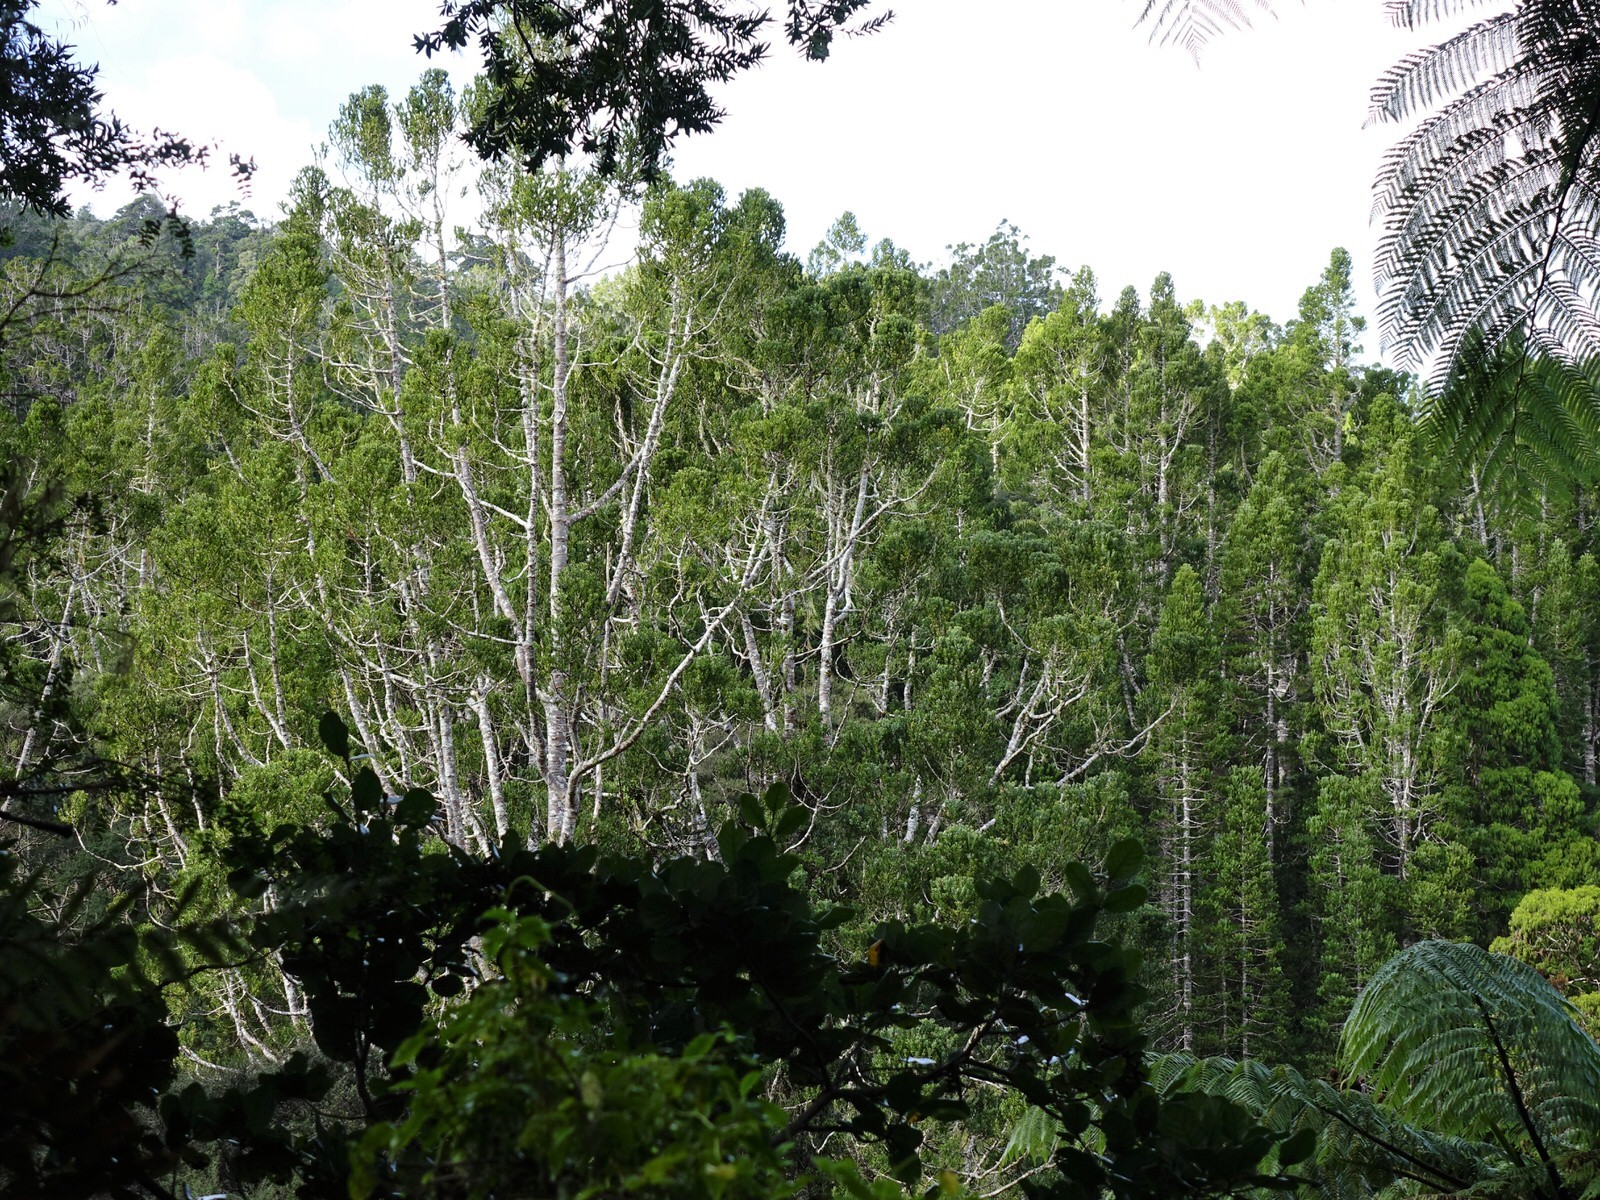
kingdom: Plantae
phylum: Tracheophyta
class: Pinopsida
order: Pinales
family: Araucariaceae
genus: Agathis
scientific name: Agathis australis
